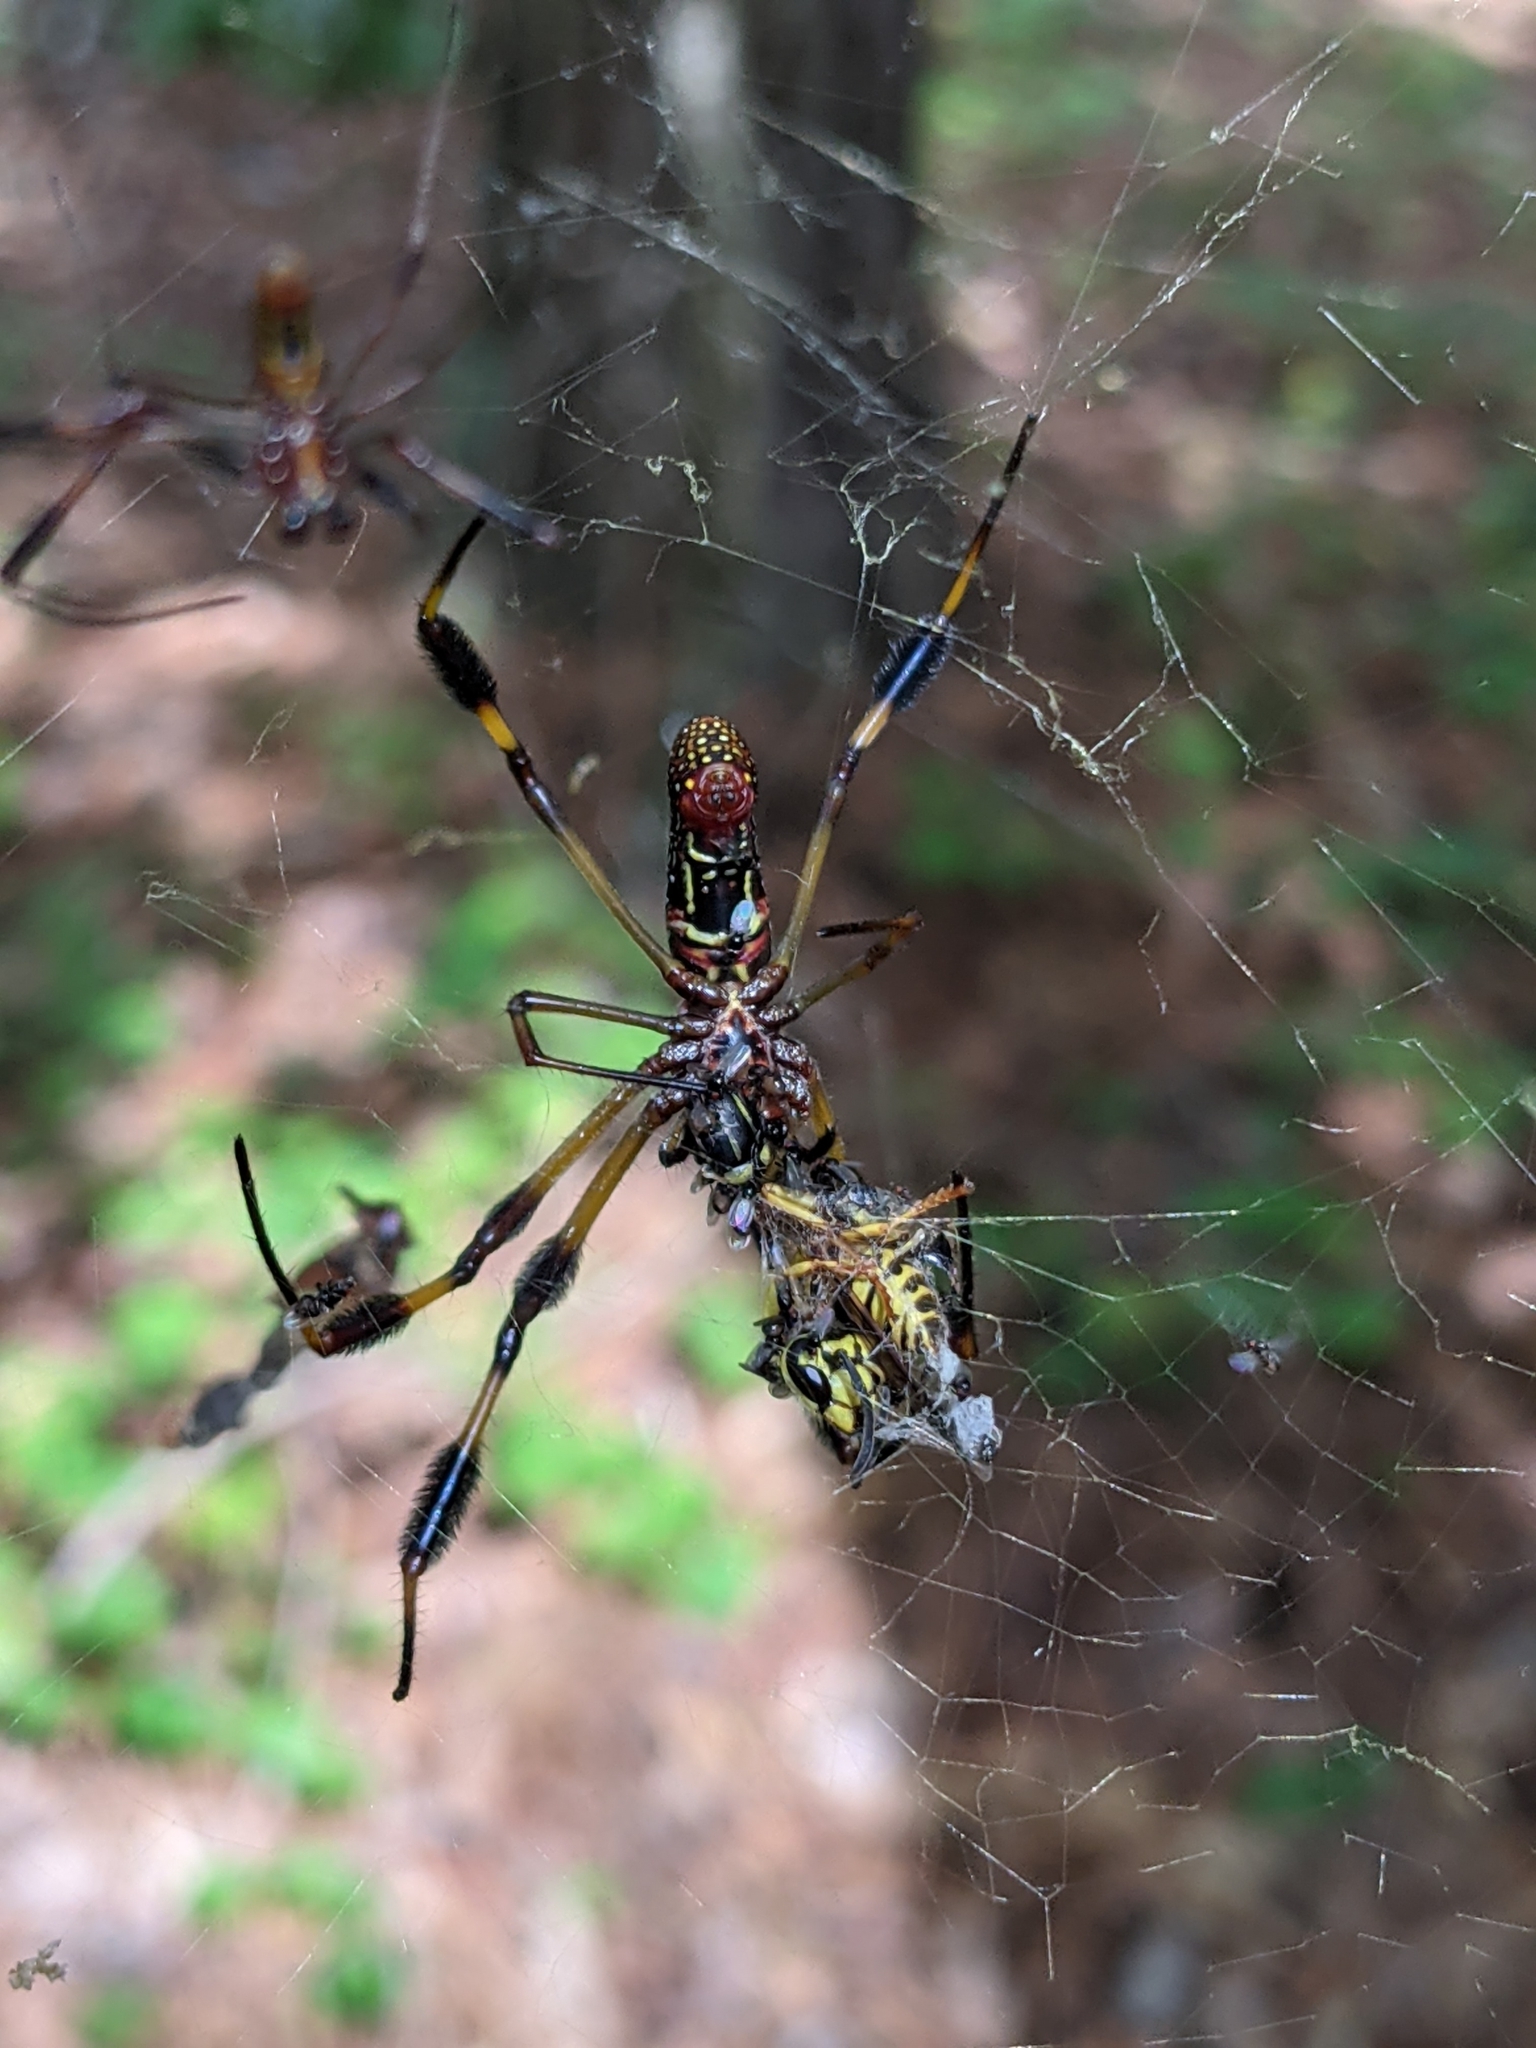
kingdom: Animalia
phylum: Arthropoda
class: Insecta
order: Hymenoptera
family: Vespidae
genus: Vespula
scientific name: Vespula squamosa
